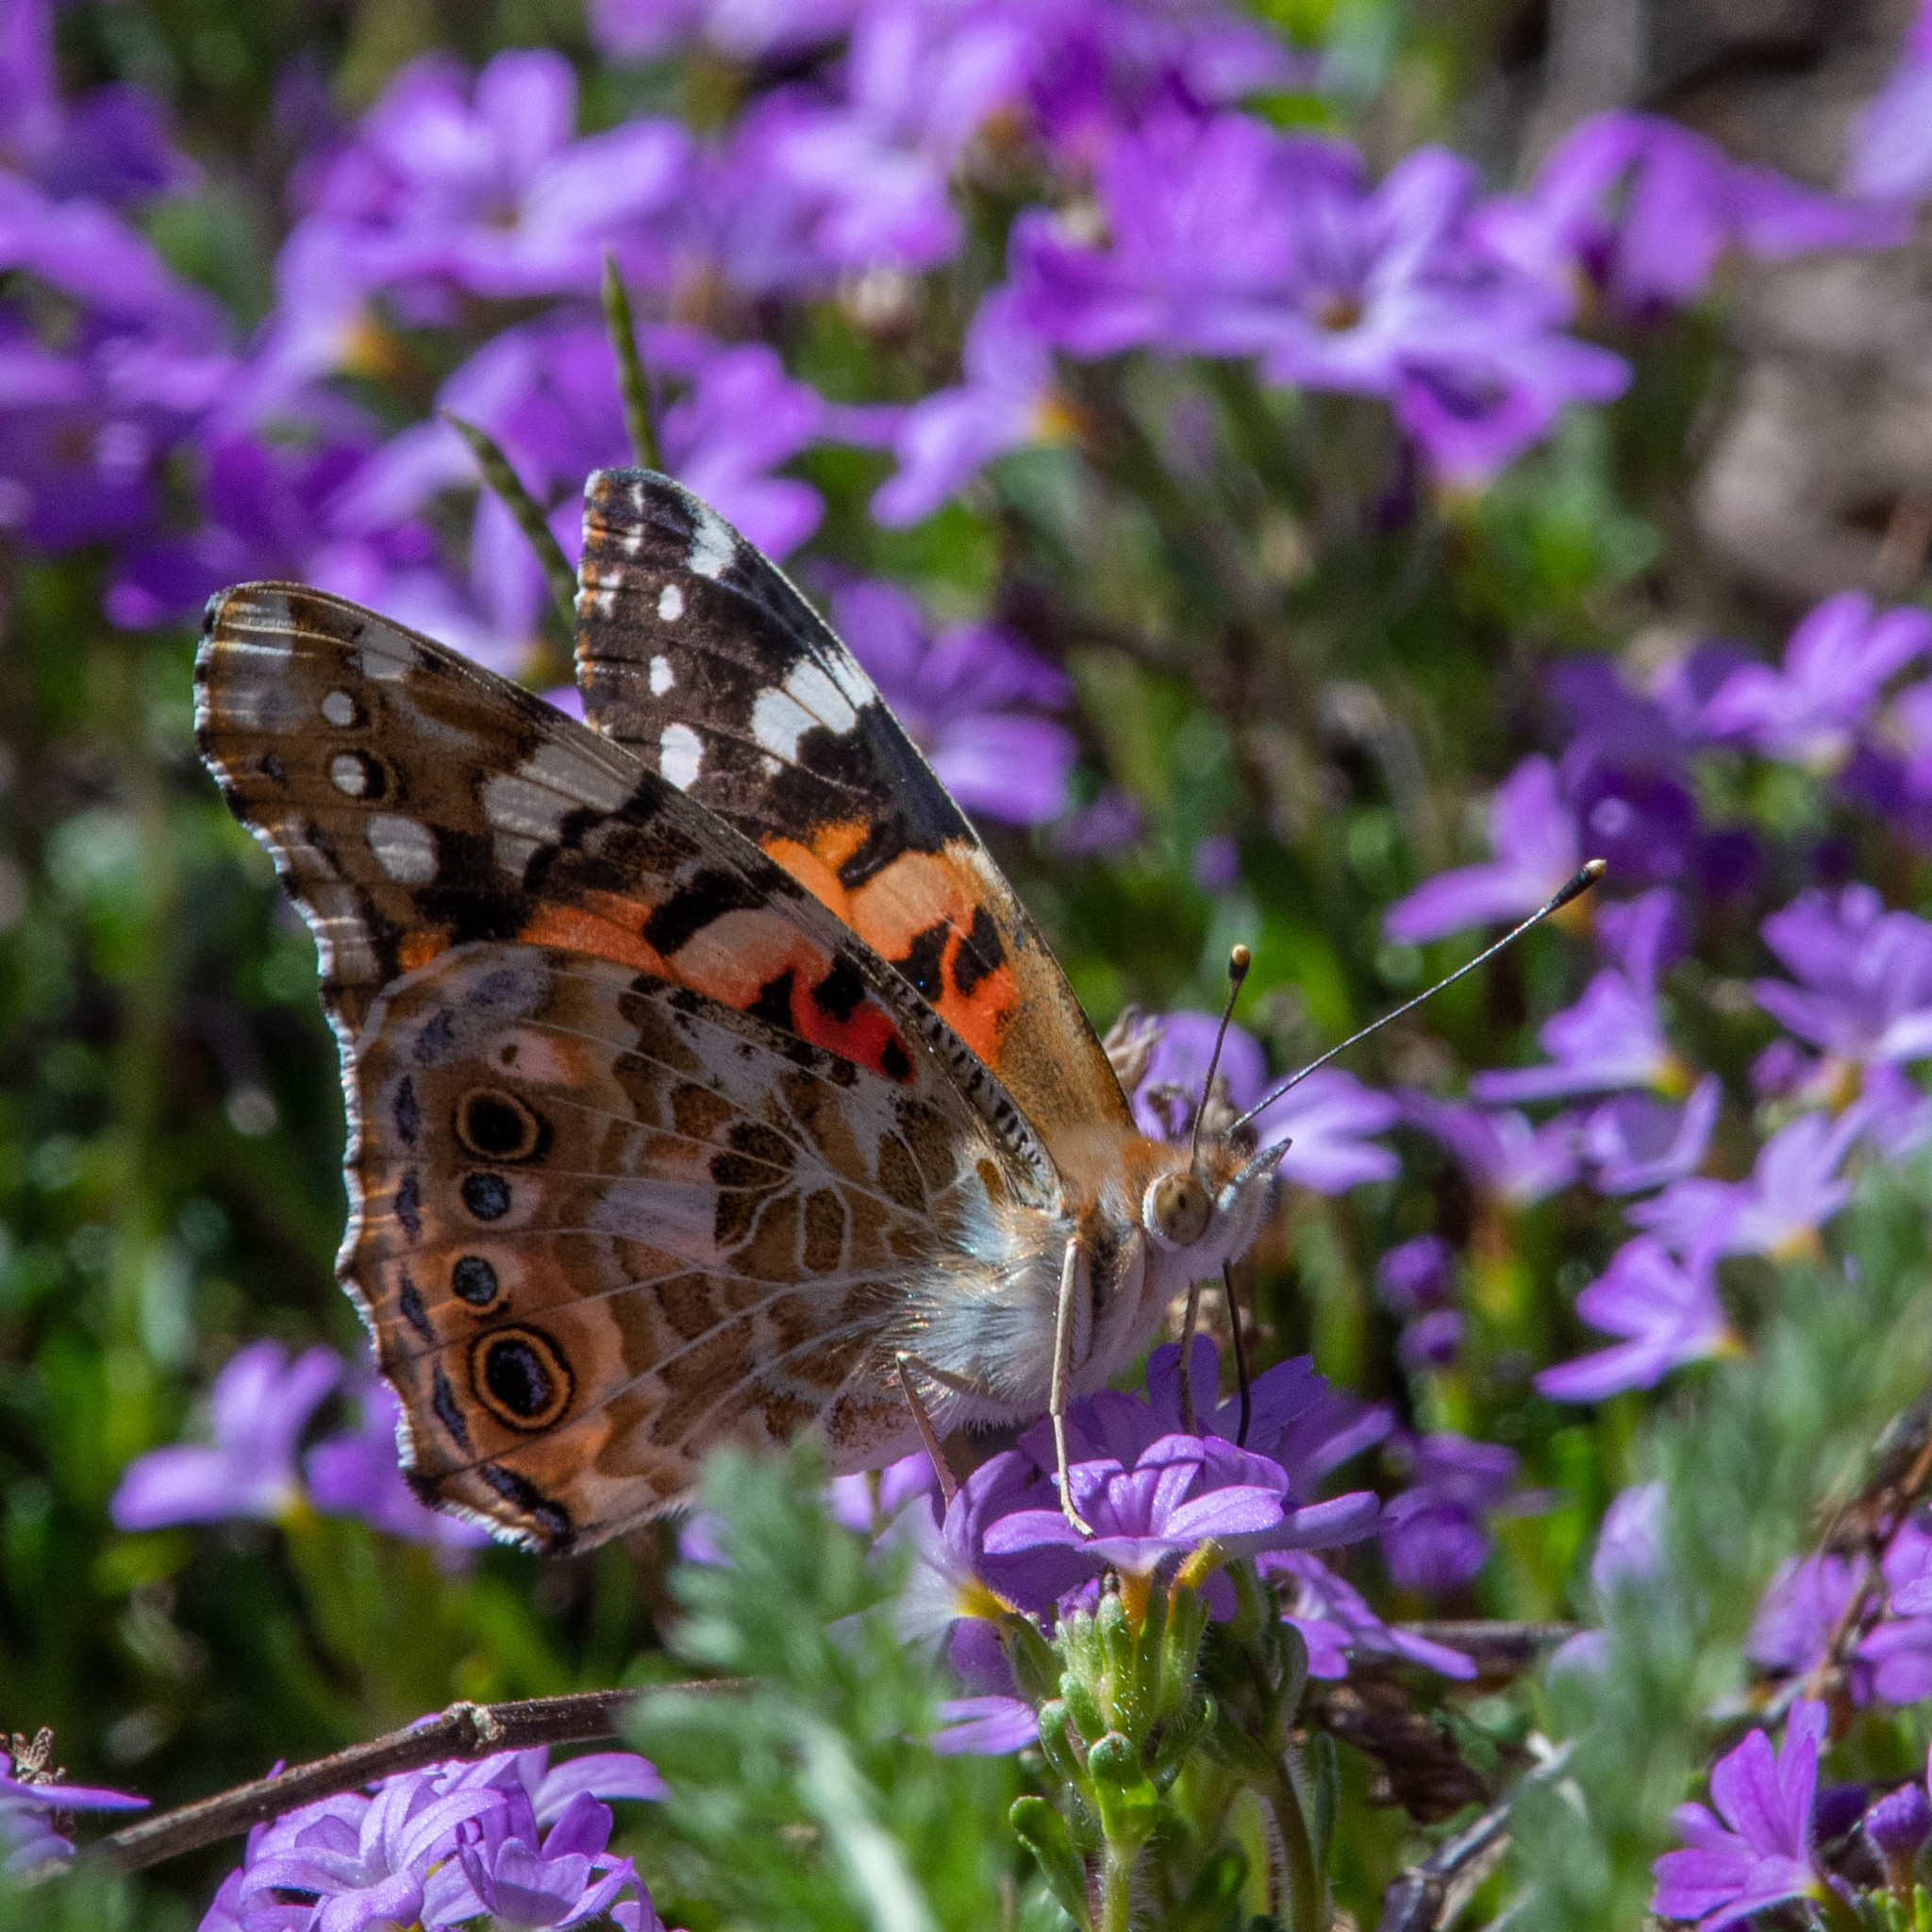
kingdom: Animalia
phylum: Arthropoda
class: Insecta
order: Lepidoptera
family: Nymphalidae
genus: Vanessa
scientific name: Vanessa cardui
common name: Painted lady
